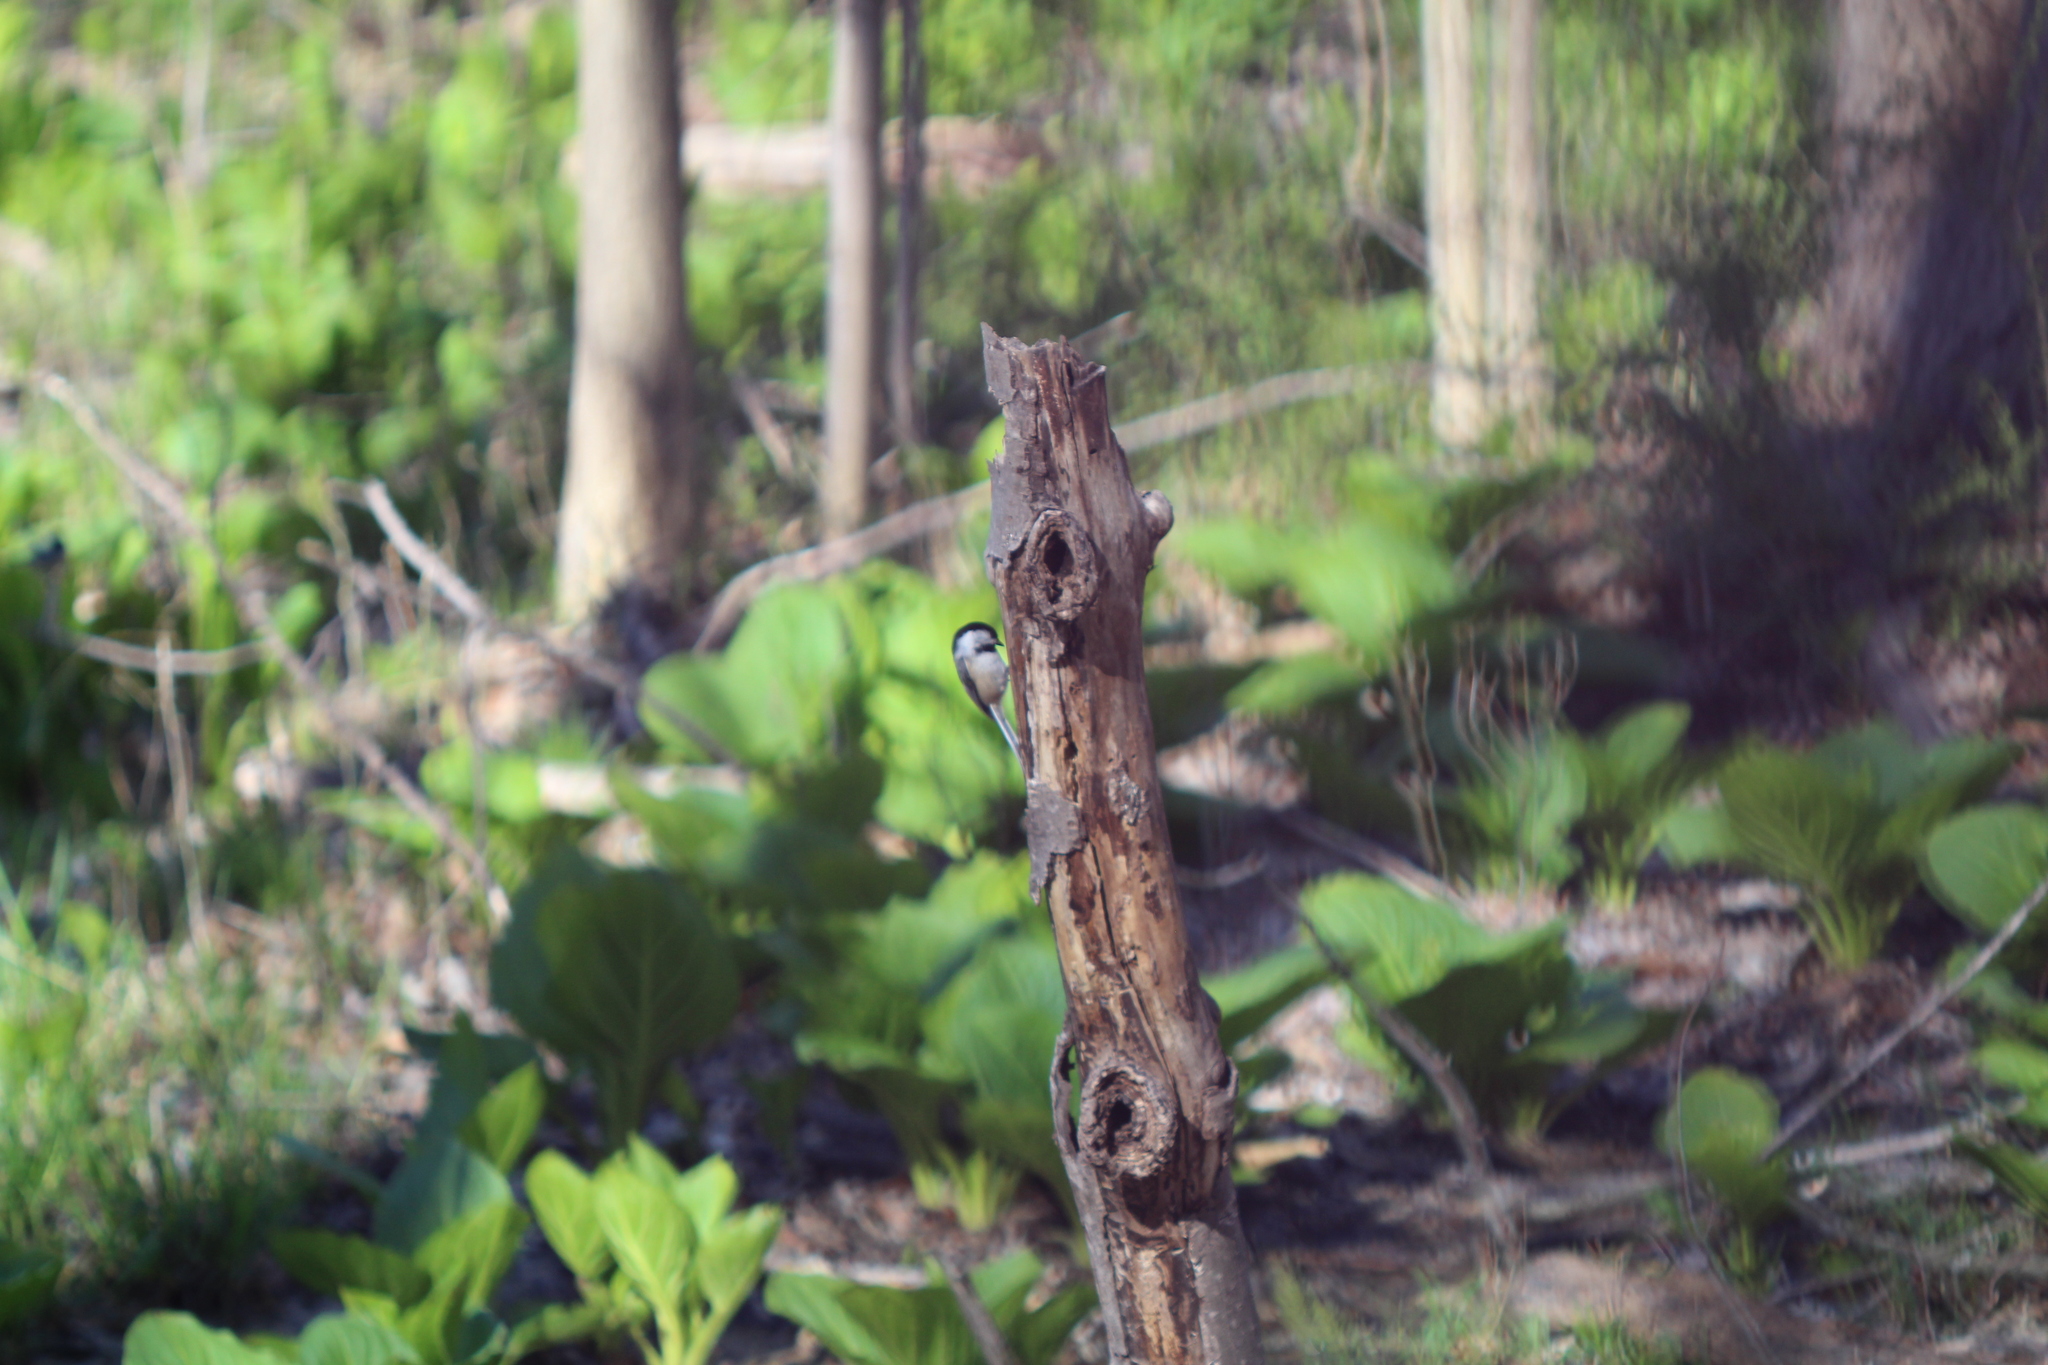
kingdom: Animalia
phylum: Chordata
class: Aves
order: Passeriformes
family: Paridae
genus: Poecile
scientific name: Poecile atricapillus
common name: Black-capped chickadee
